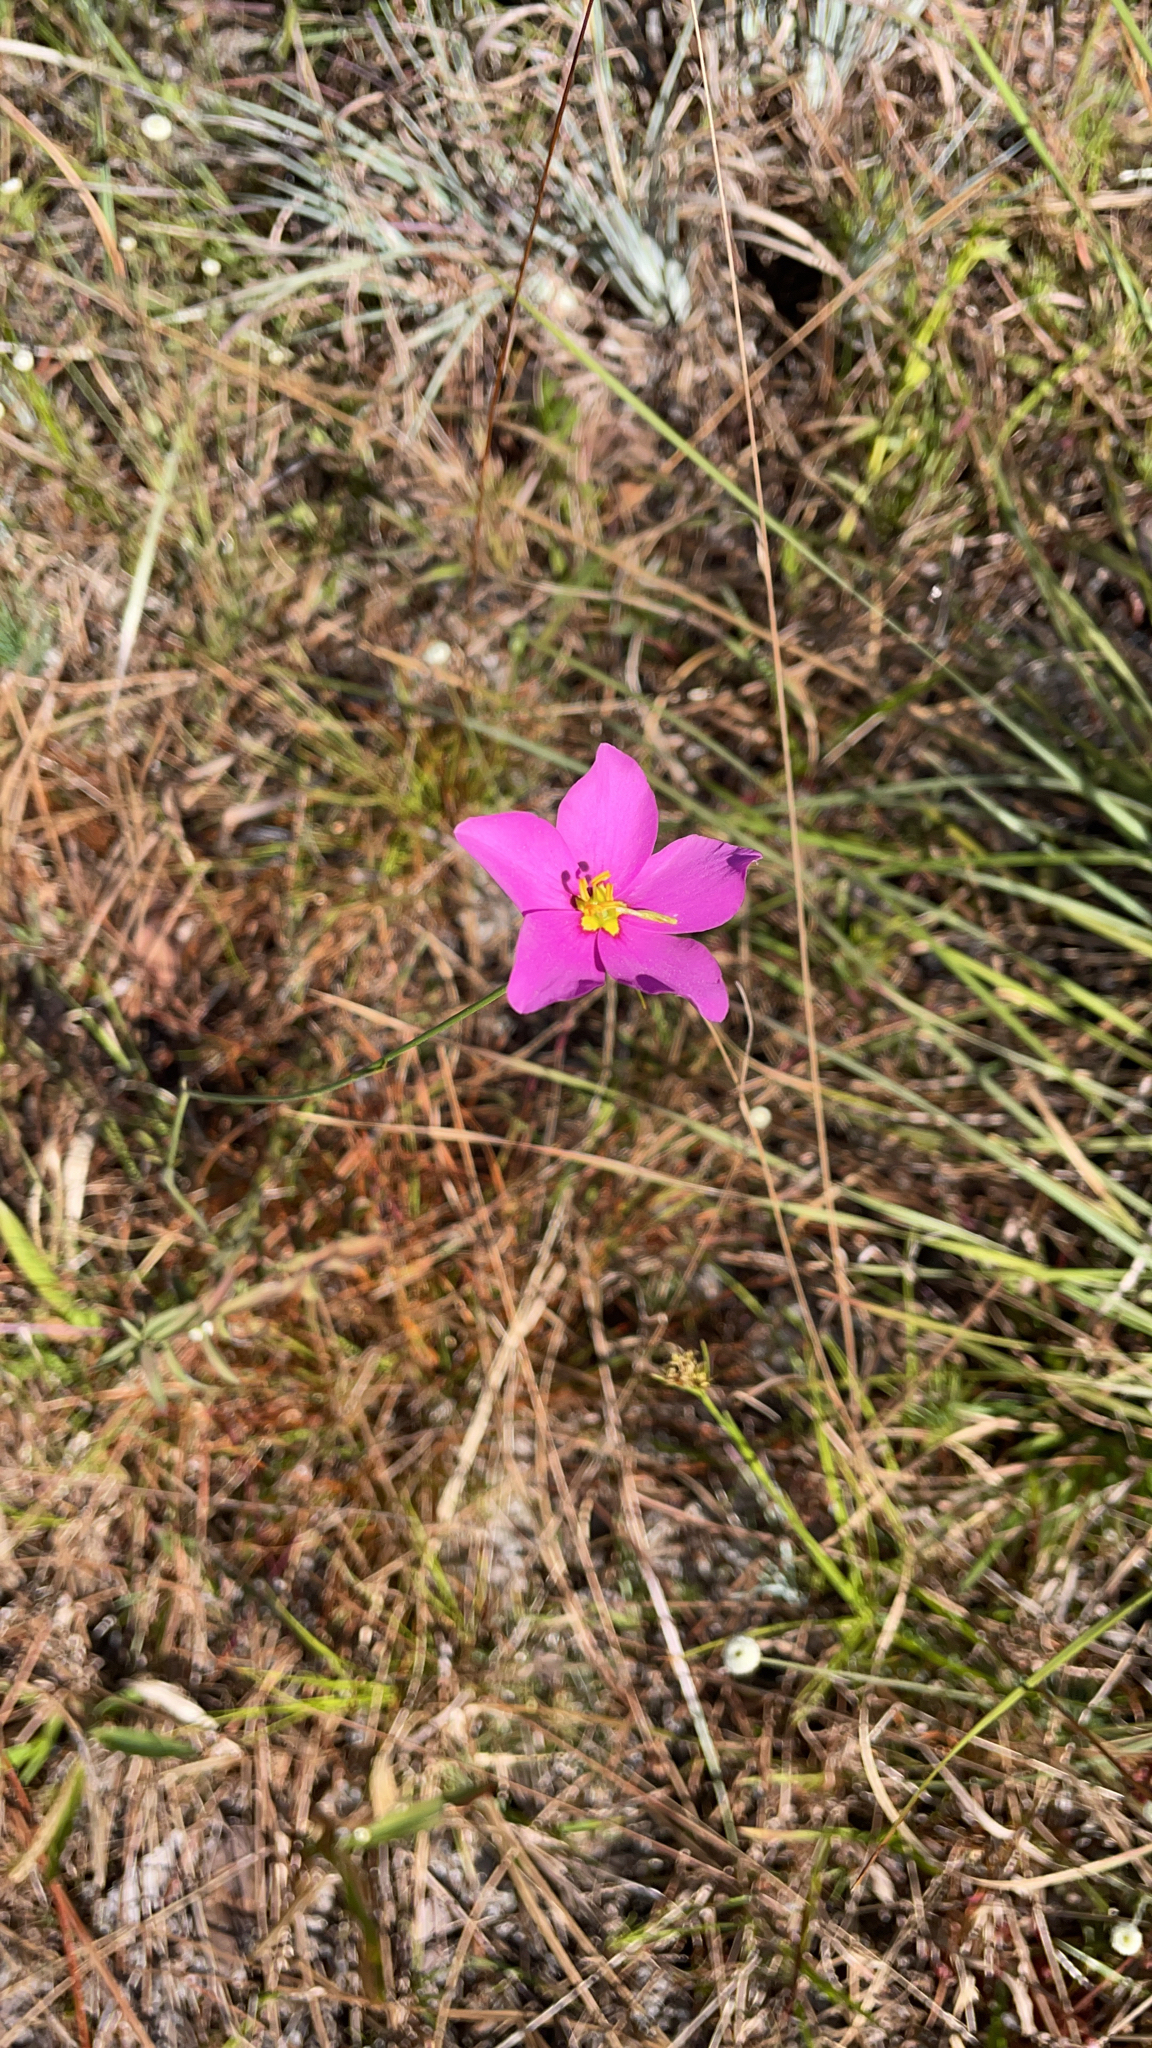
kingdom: Plantae
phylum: Tracheophyta
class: Magnoliopsida
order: Gentianales
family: Gentianaceae
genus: Sabatia
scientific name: Sabatia grandiflora
